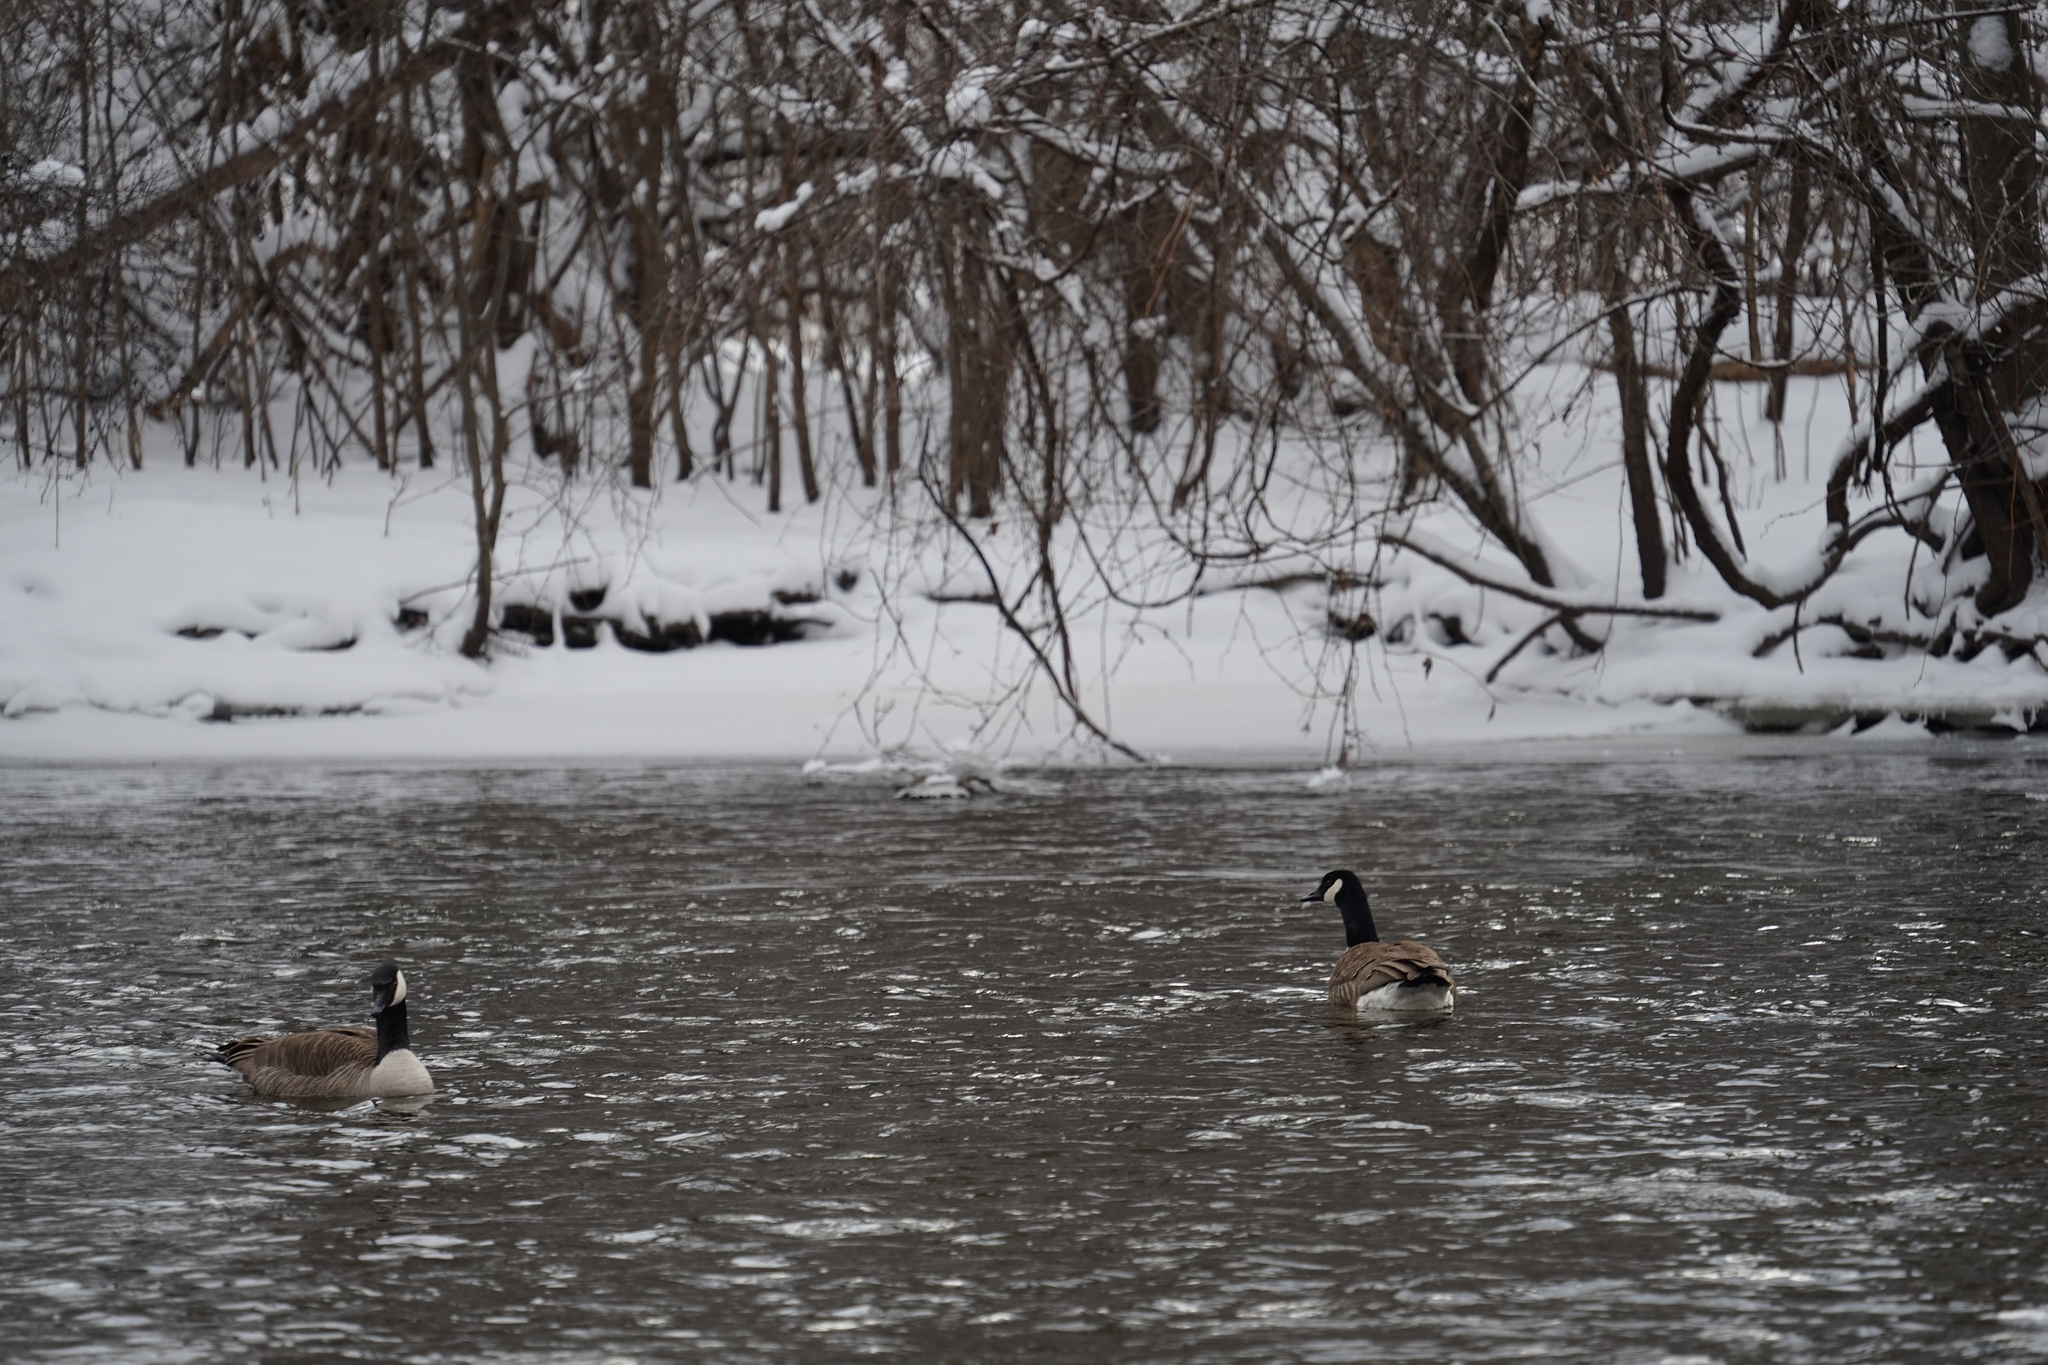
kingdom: Animalia
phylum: Chordata
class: Aves
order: Anseriformes
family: Anatidae
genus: Branta
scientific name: Branta canadensis
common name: Canada goose
